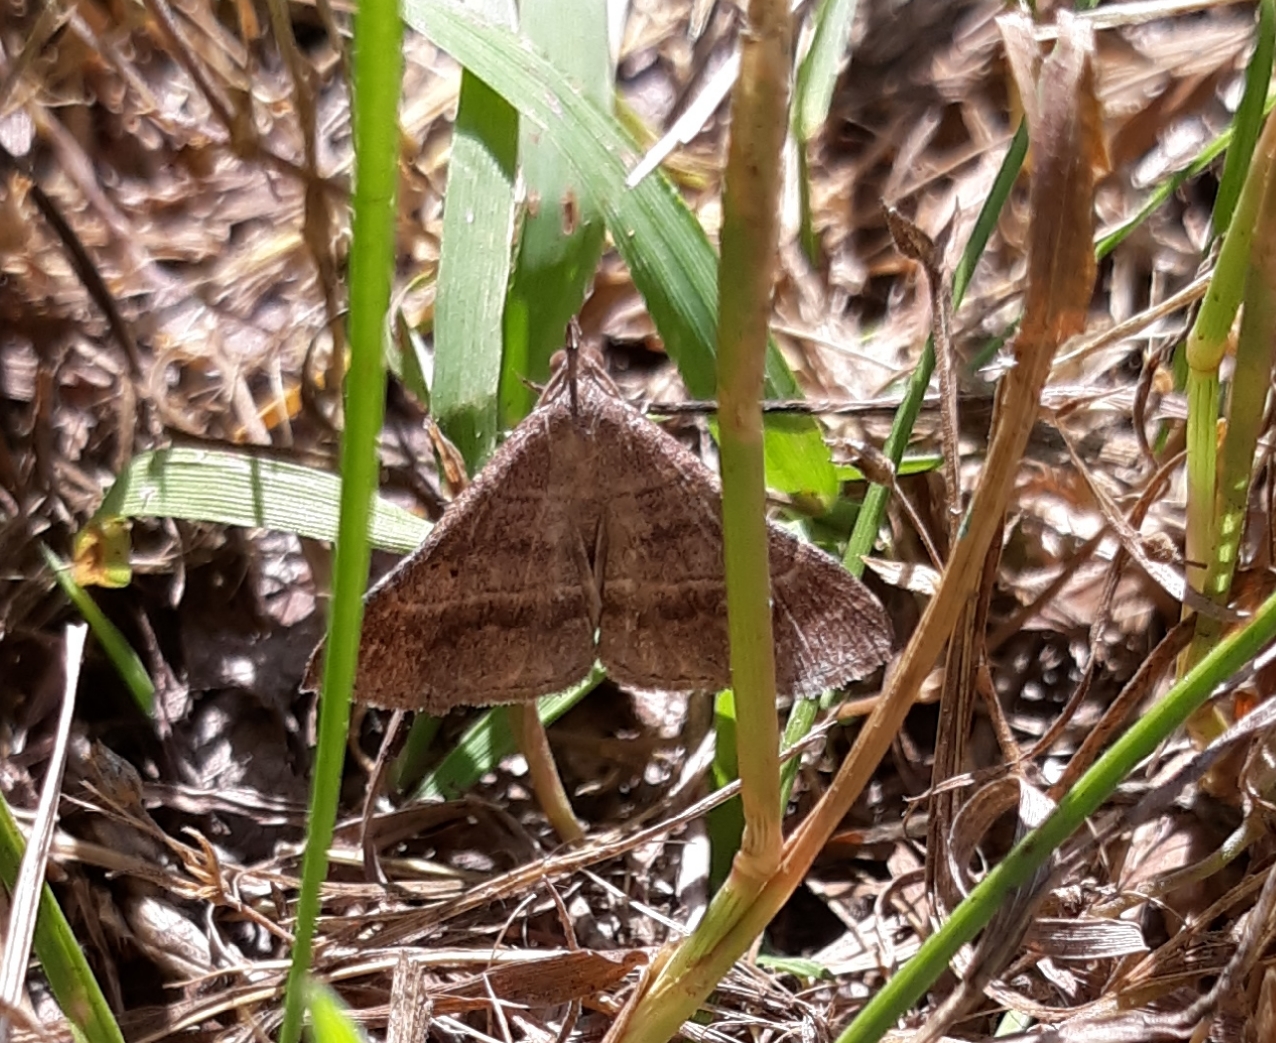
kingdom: Animalia
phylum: Arthropoda
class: Insecta
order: Lepidoptera
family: Erebidae
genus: Renia
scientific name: Renia flavipunctalis
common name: Yellow-spotted renia moth
